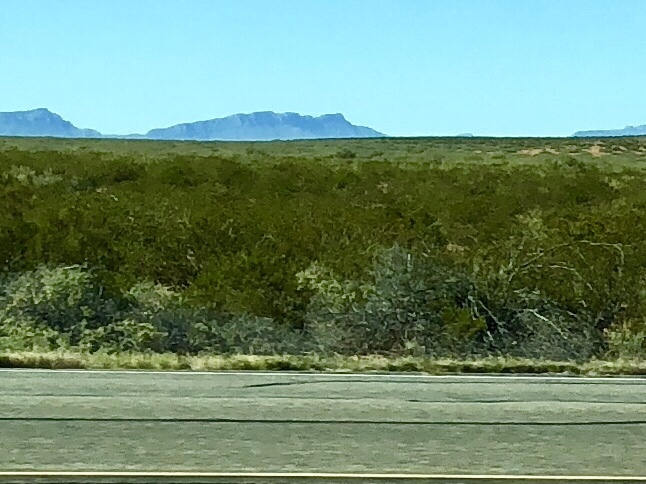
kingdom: Plantae
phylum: Tracheophyta
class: Magnoliopsida
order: Zygophyllales
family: Zygophyllaceae
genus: Larrea
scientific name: Larrea tridentata
